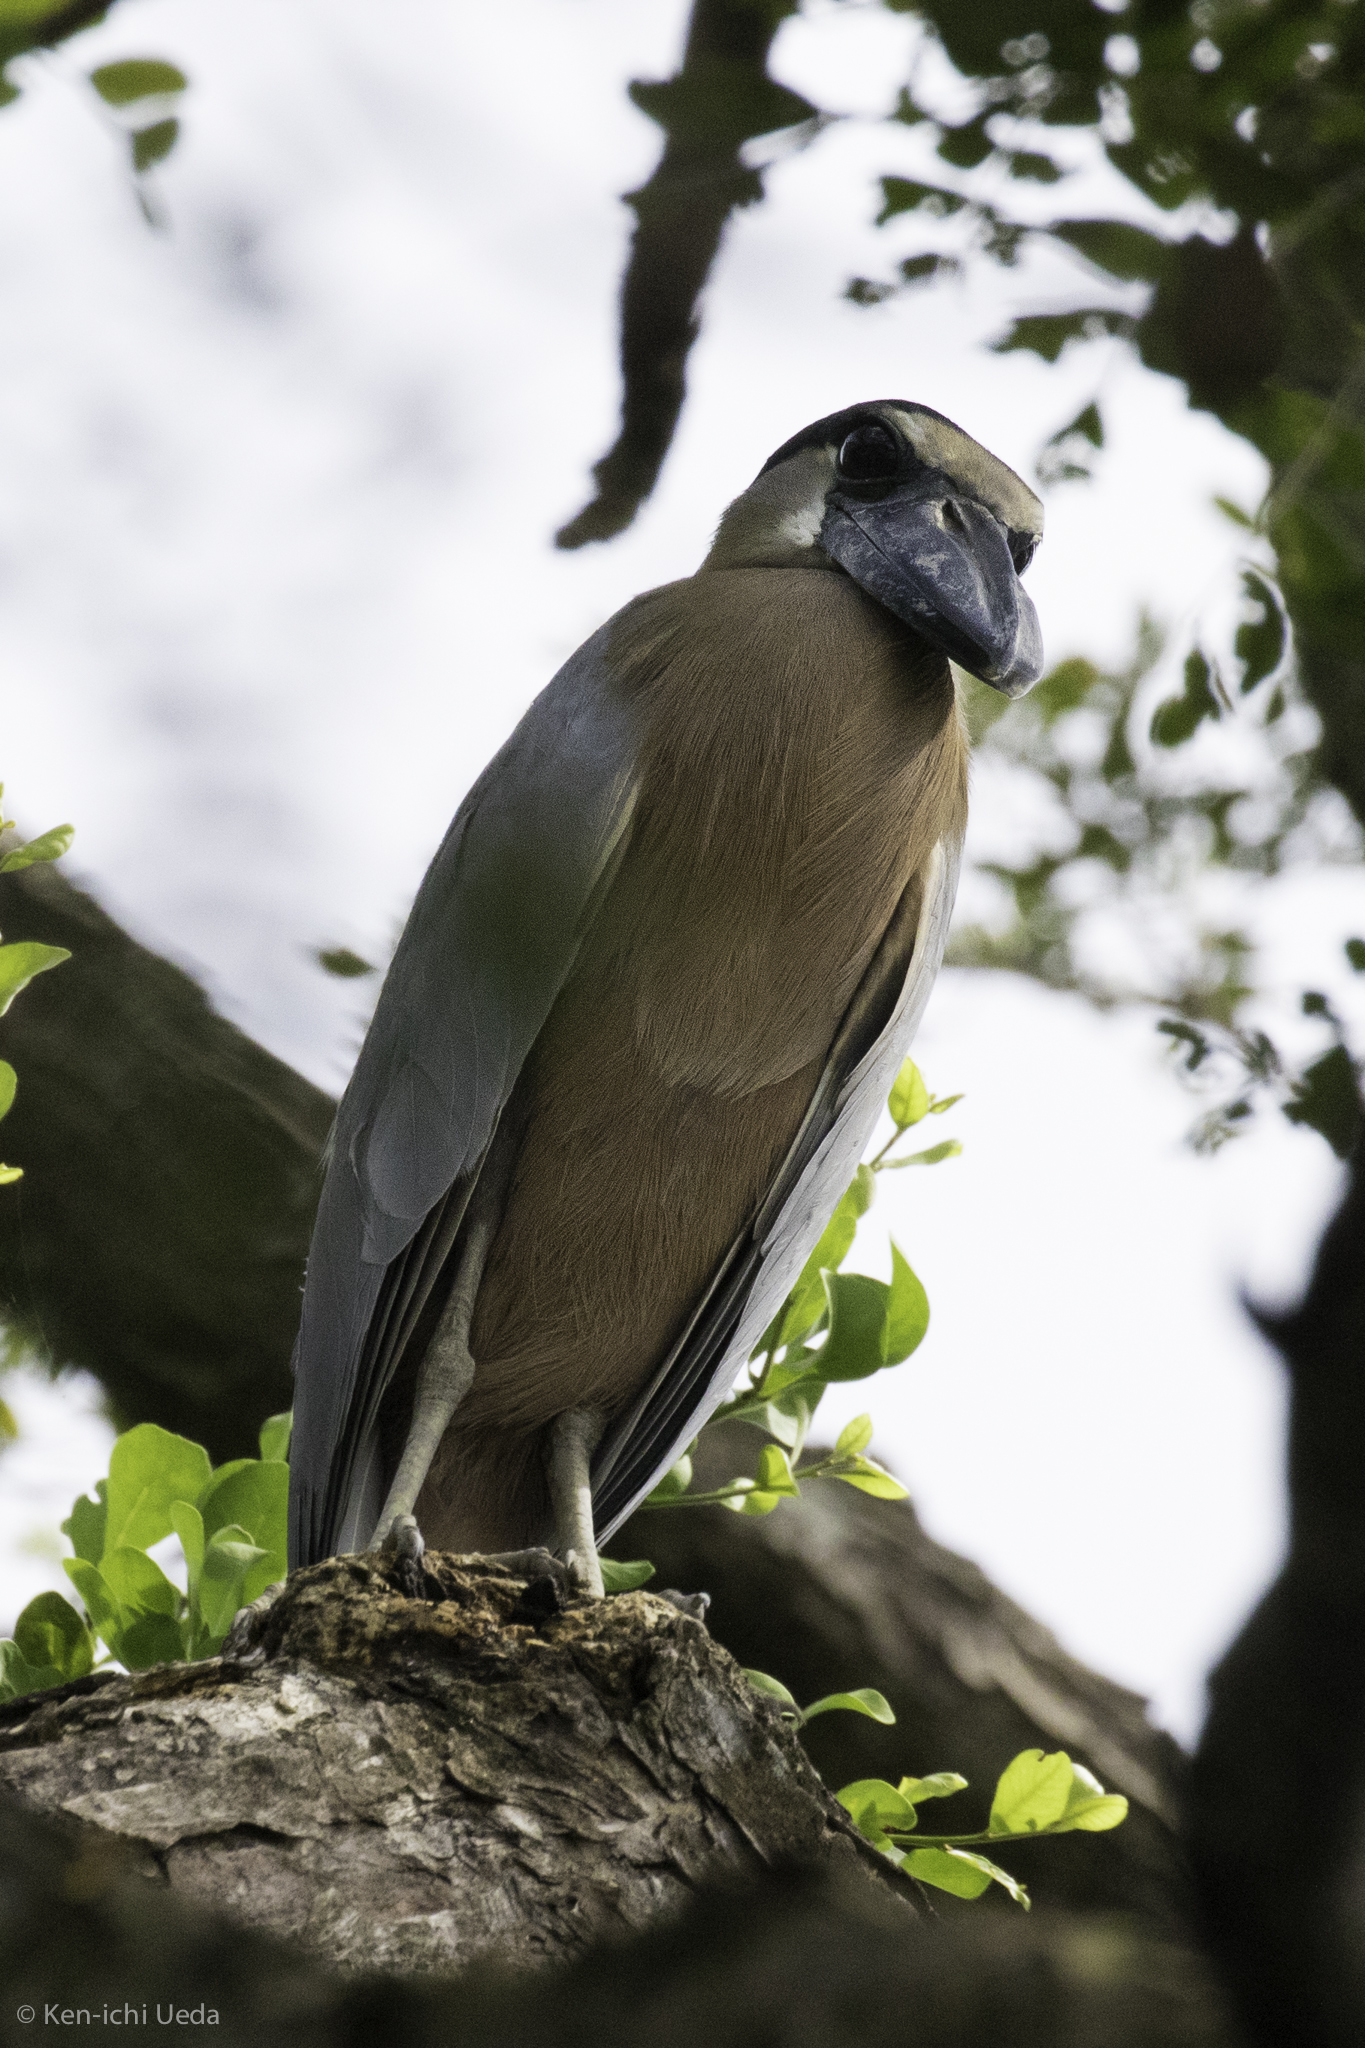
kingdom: Animalia
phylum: Chordata
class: Aves
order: Pelecaniformes
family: Ardeidae
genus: Cochlearius
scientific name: Cochlearius cochlearius
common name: Boat-billed heron
